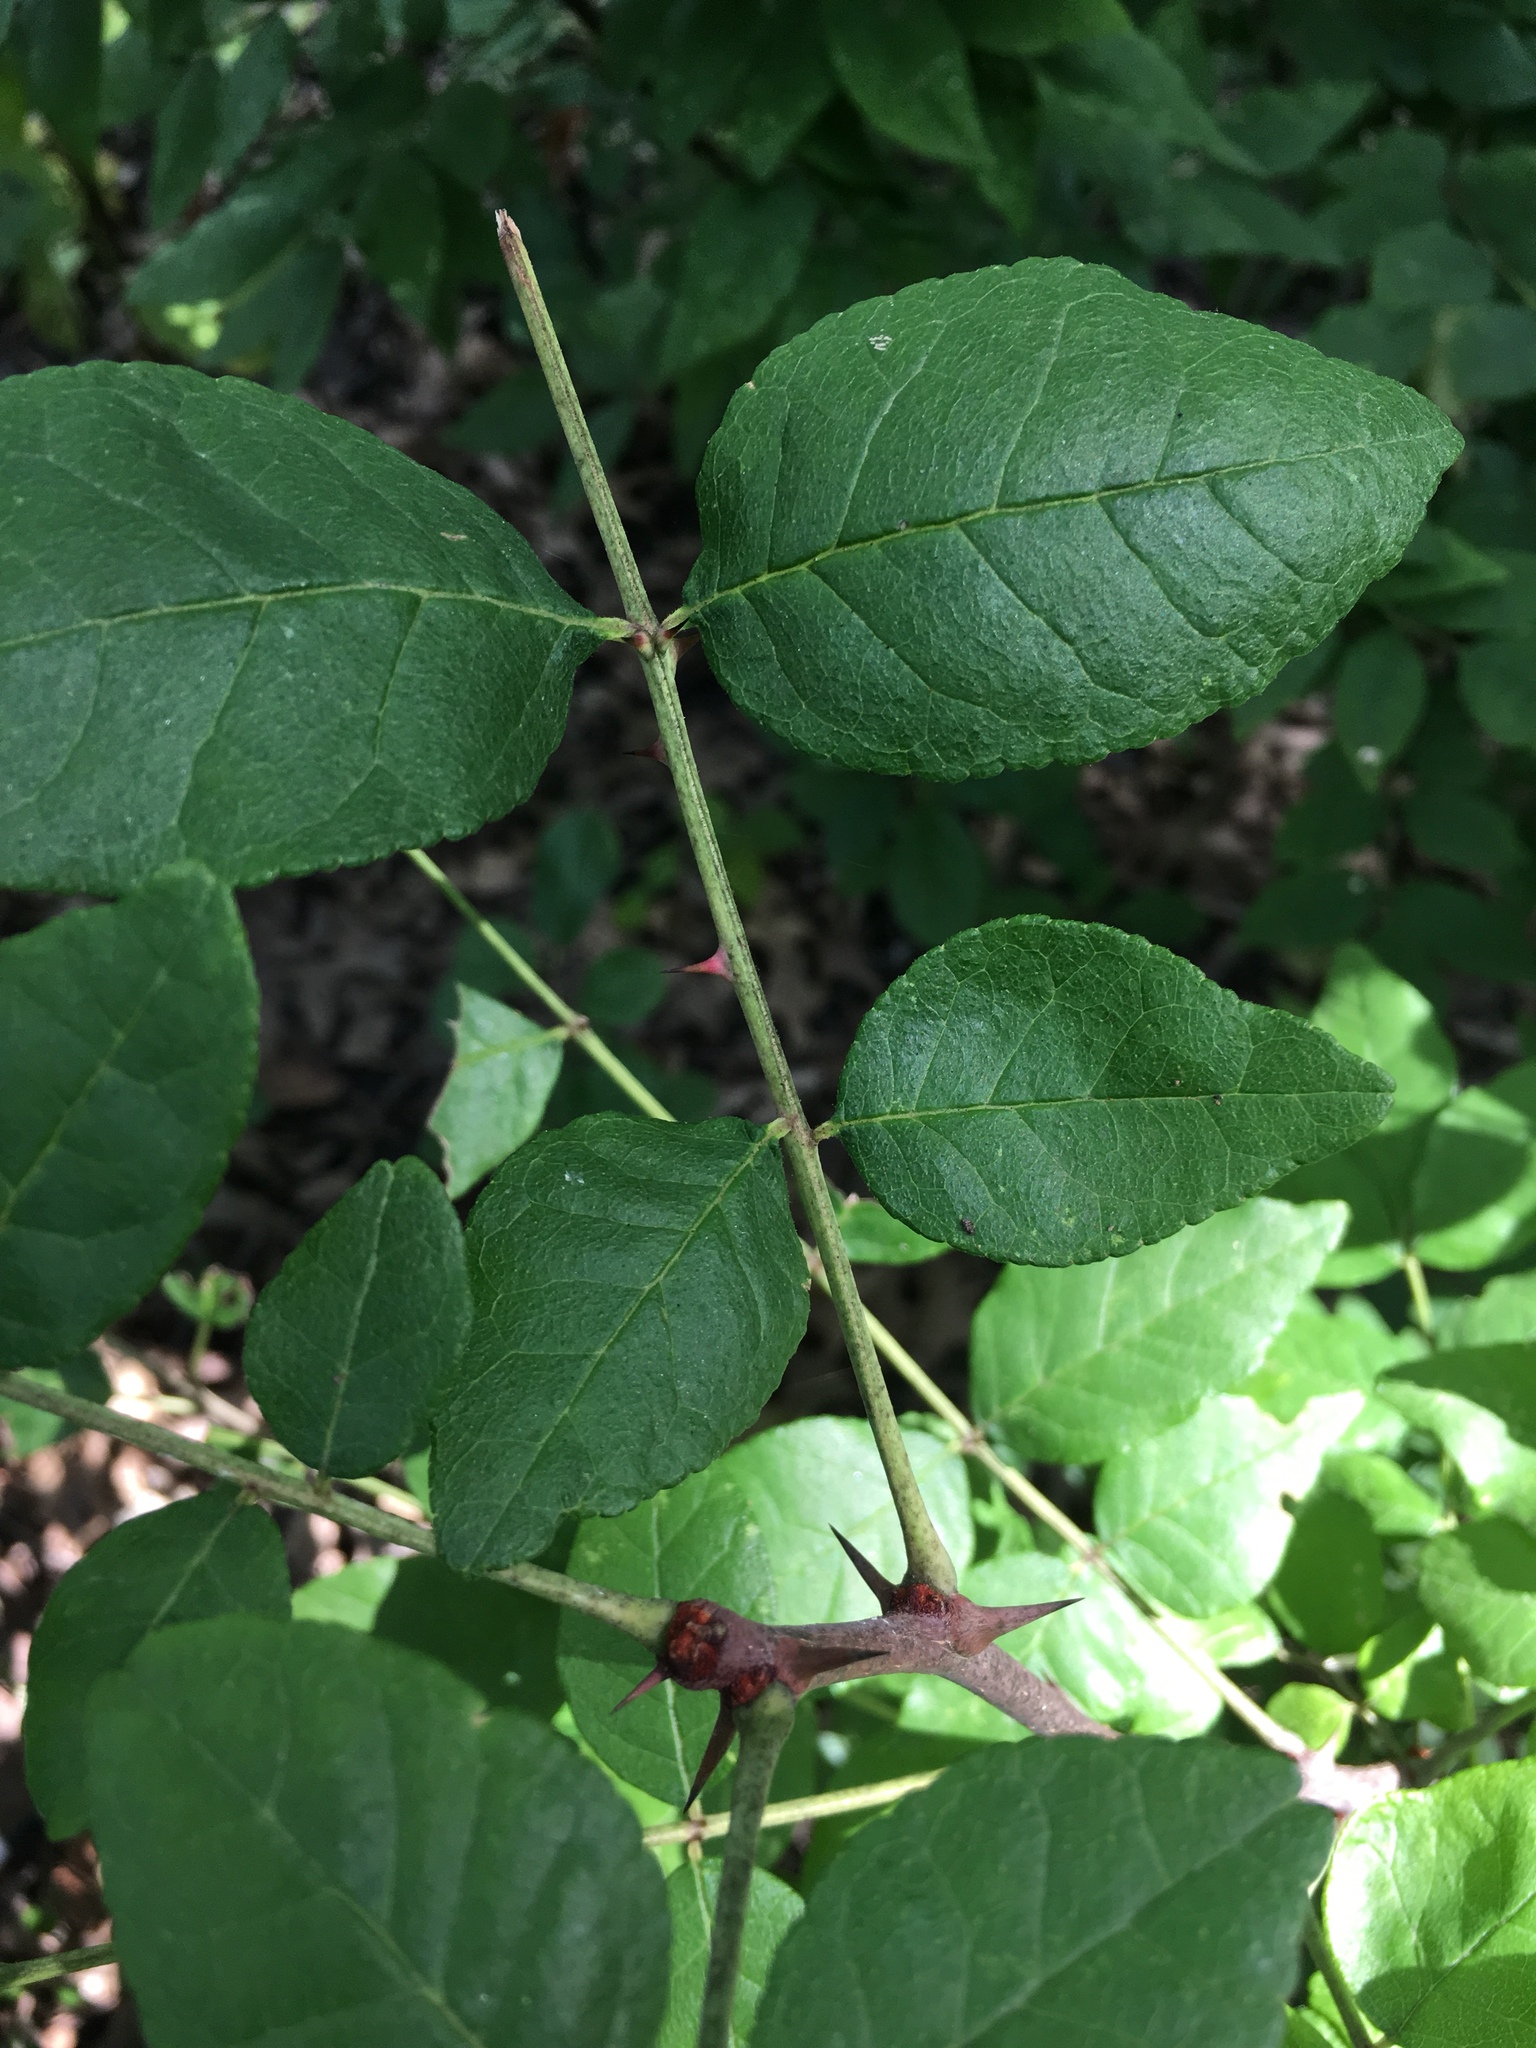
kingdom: Plantae
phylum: Tracheophyta
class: Magnoliopsida
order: Sapindales
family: Rutaceae
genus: Zanthoxylum
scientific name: Zanthoxylum americanum
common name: Northern prickly-ash
